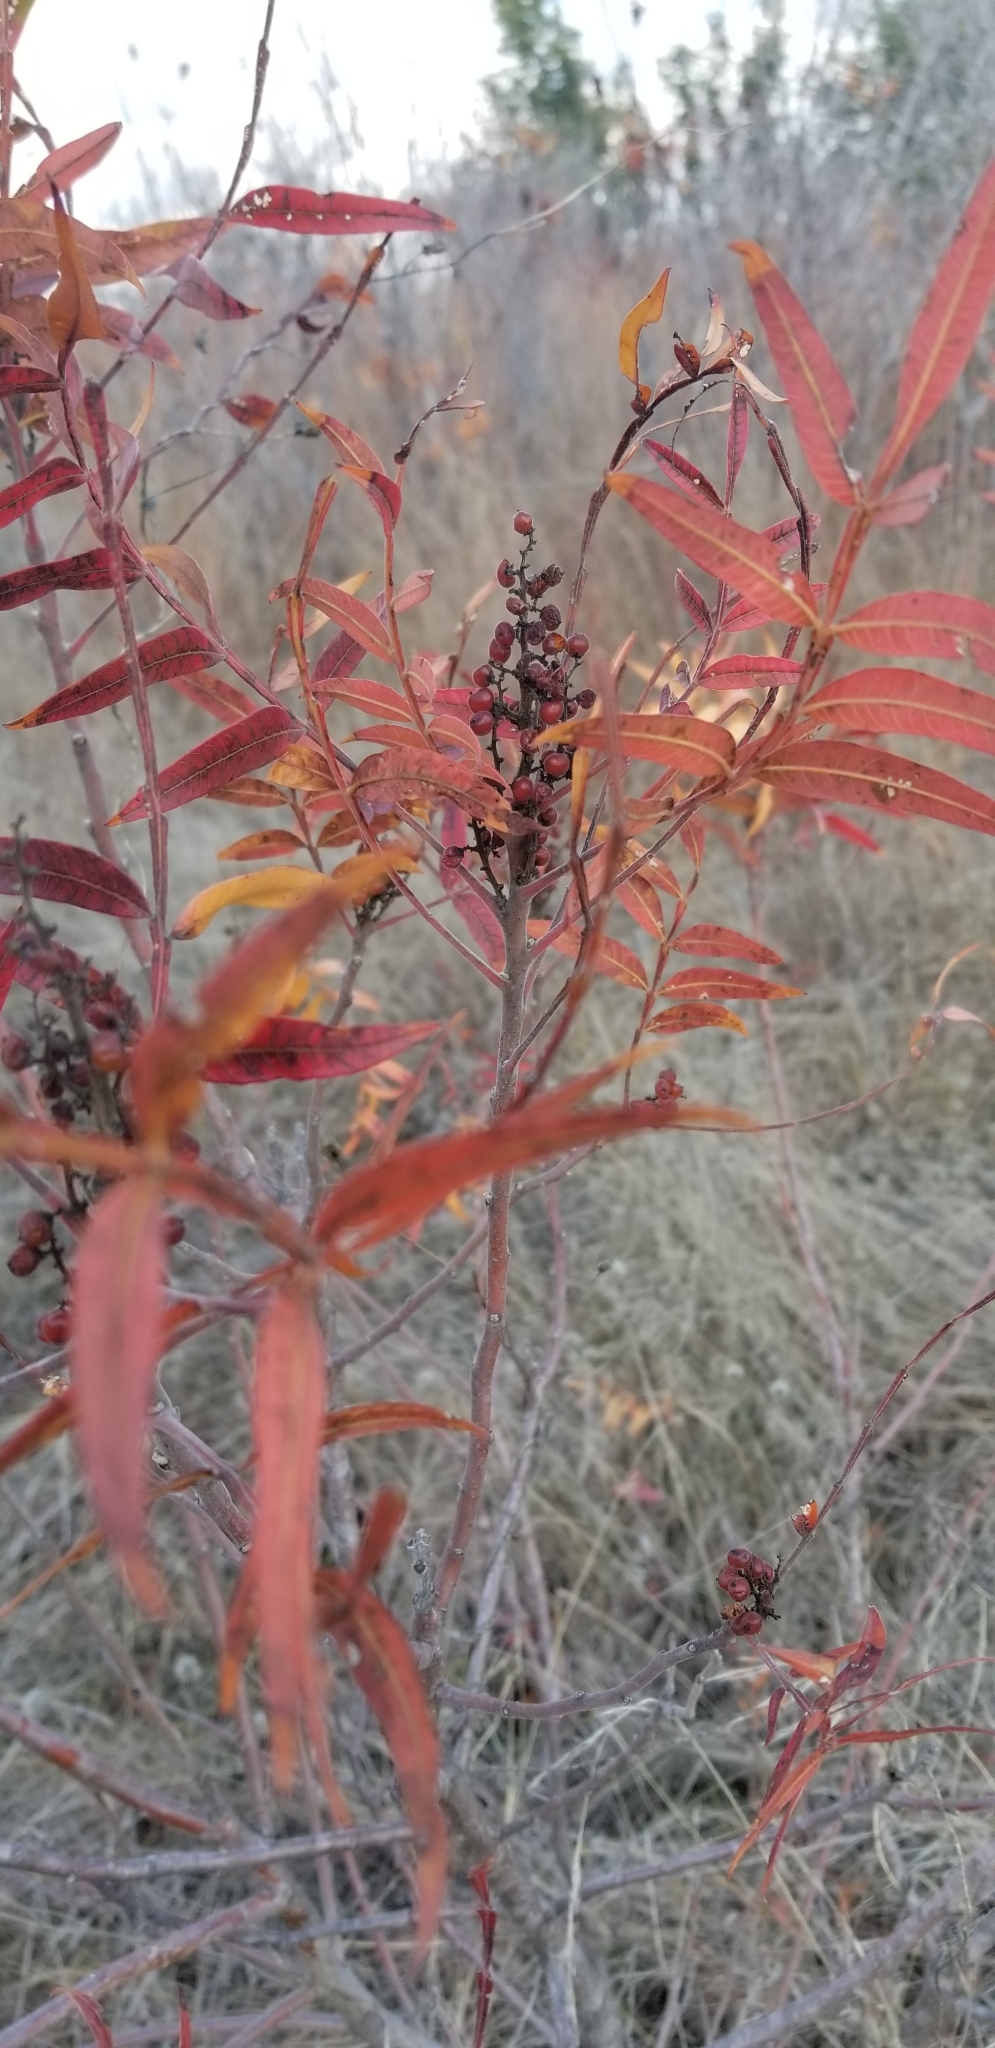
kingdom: Plantae
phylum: Tracheophyta
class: Magnoliopsida
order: Sapindales
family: Anacardiaceae
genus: Rhus
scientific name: Rhus lanceolata
